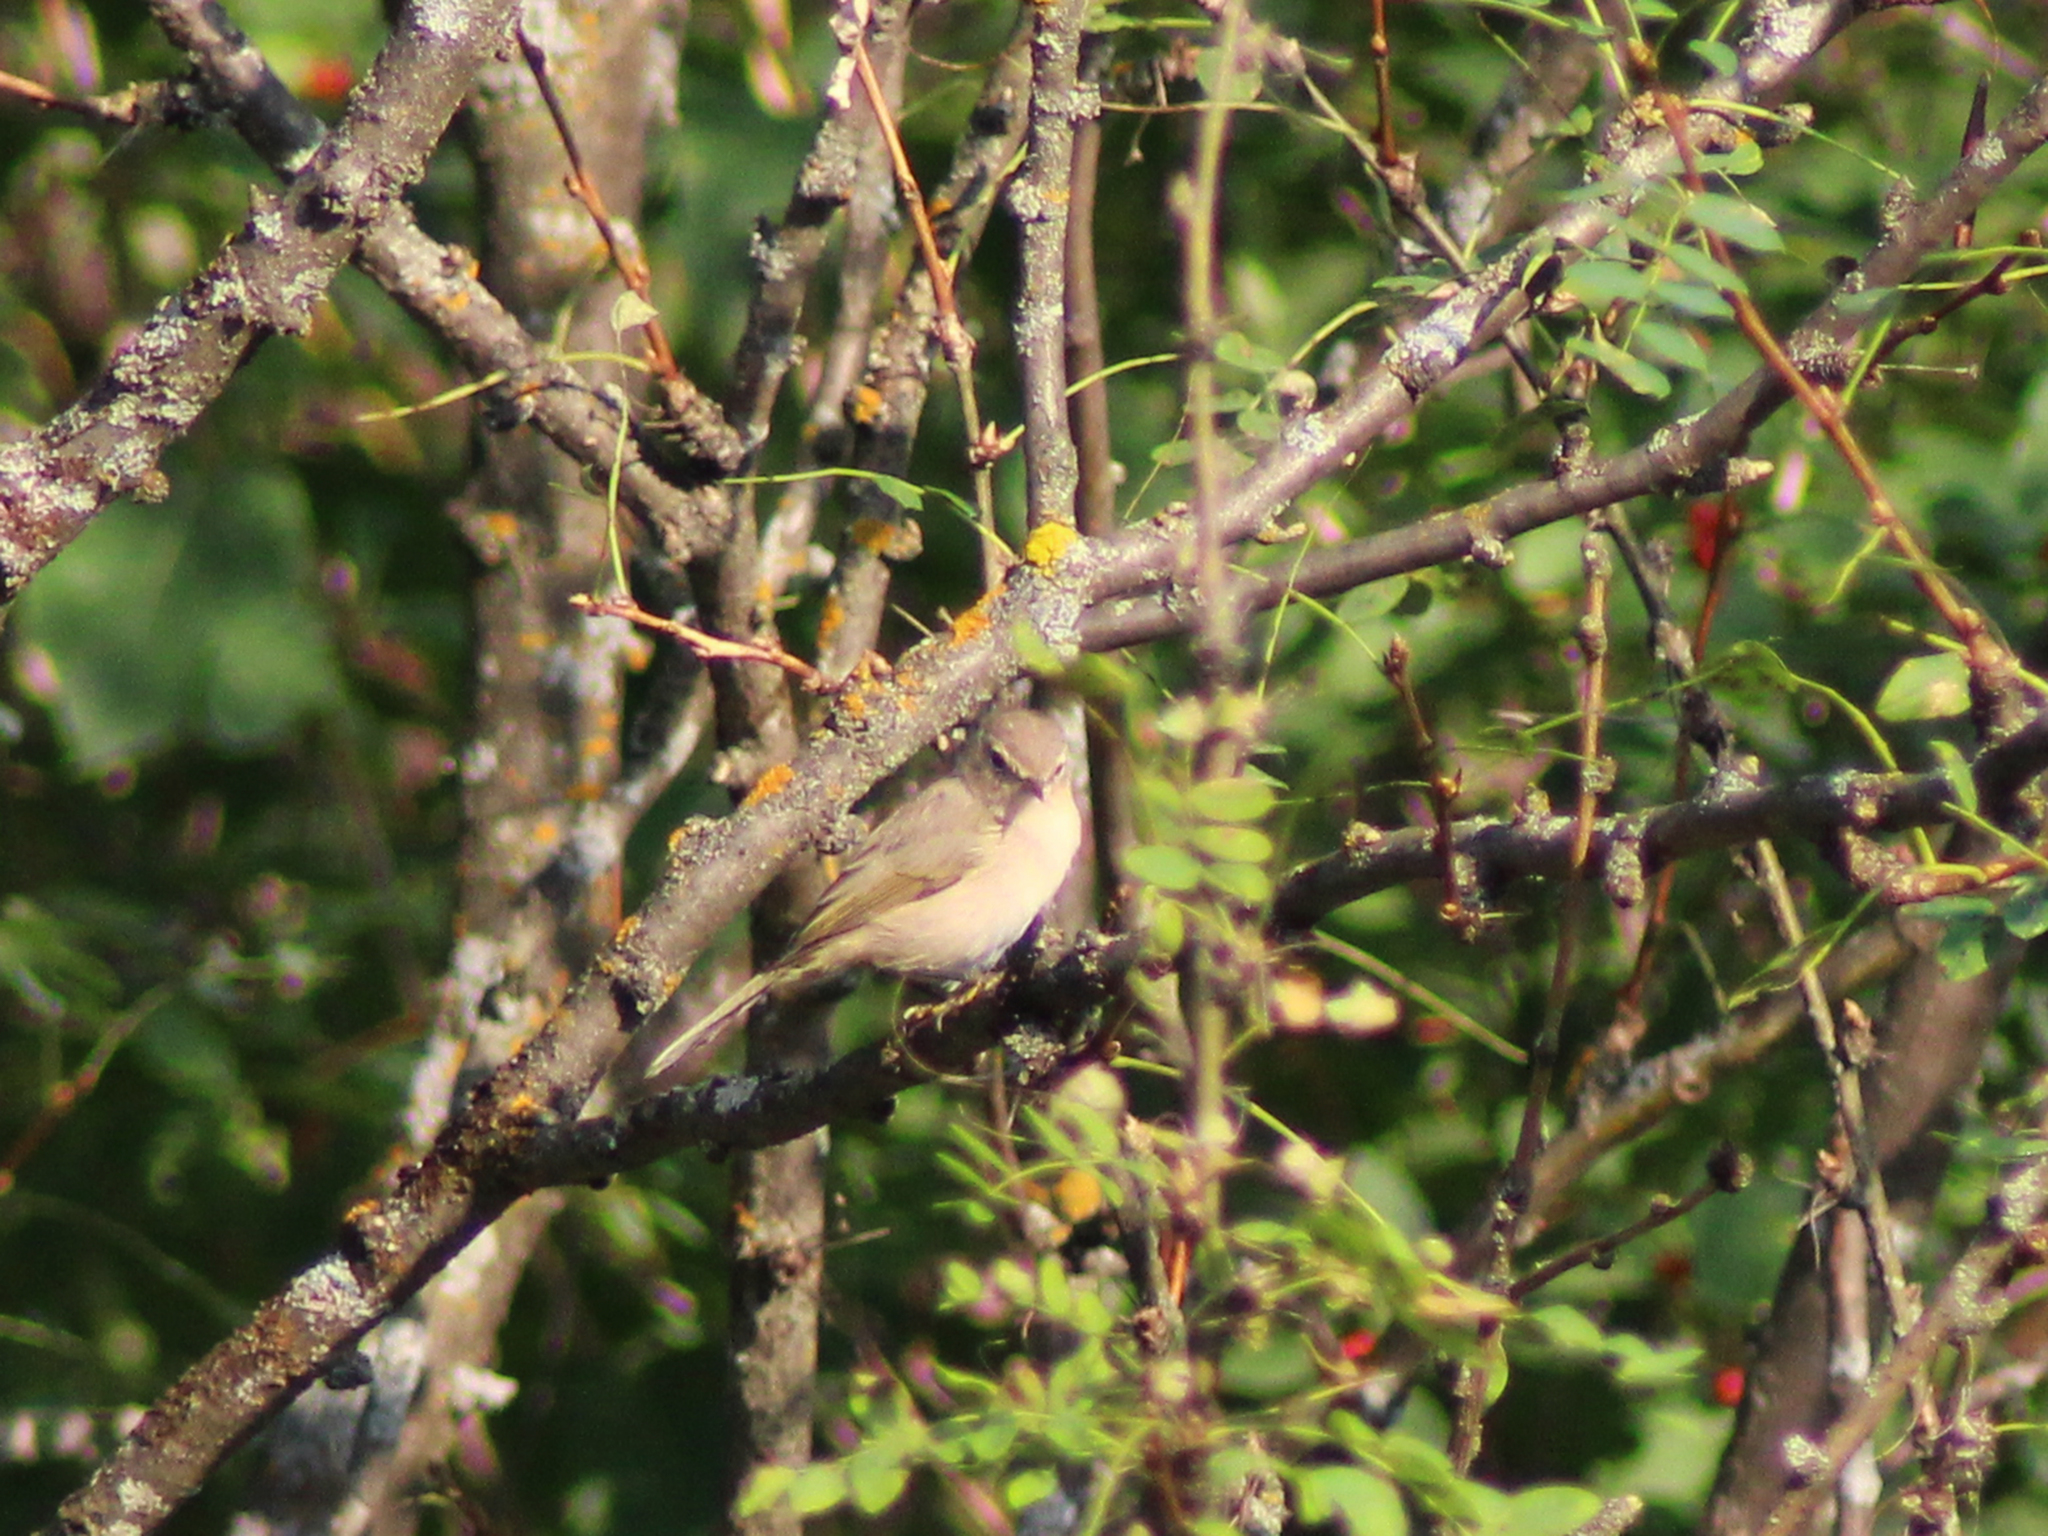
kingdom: Animalia
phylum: Chordata
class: Aves
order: Passeriformes
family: Phylloscopidae
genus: Phylloscopus
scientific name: Phylloscopus collybita
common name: Common chiffchaff
